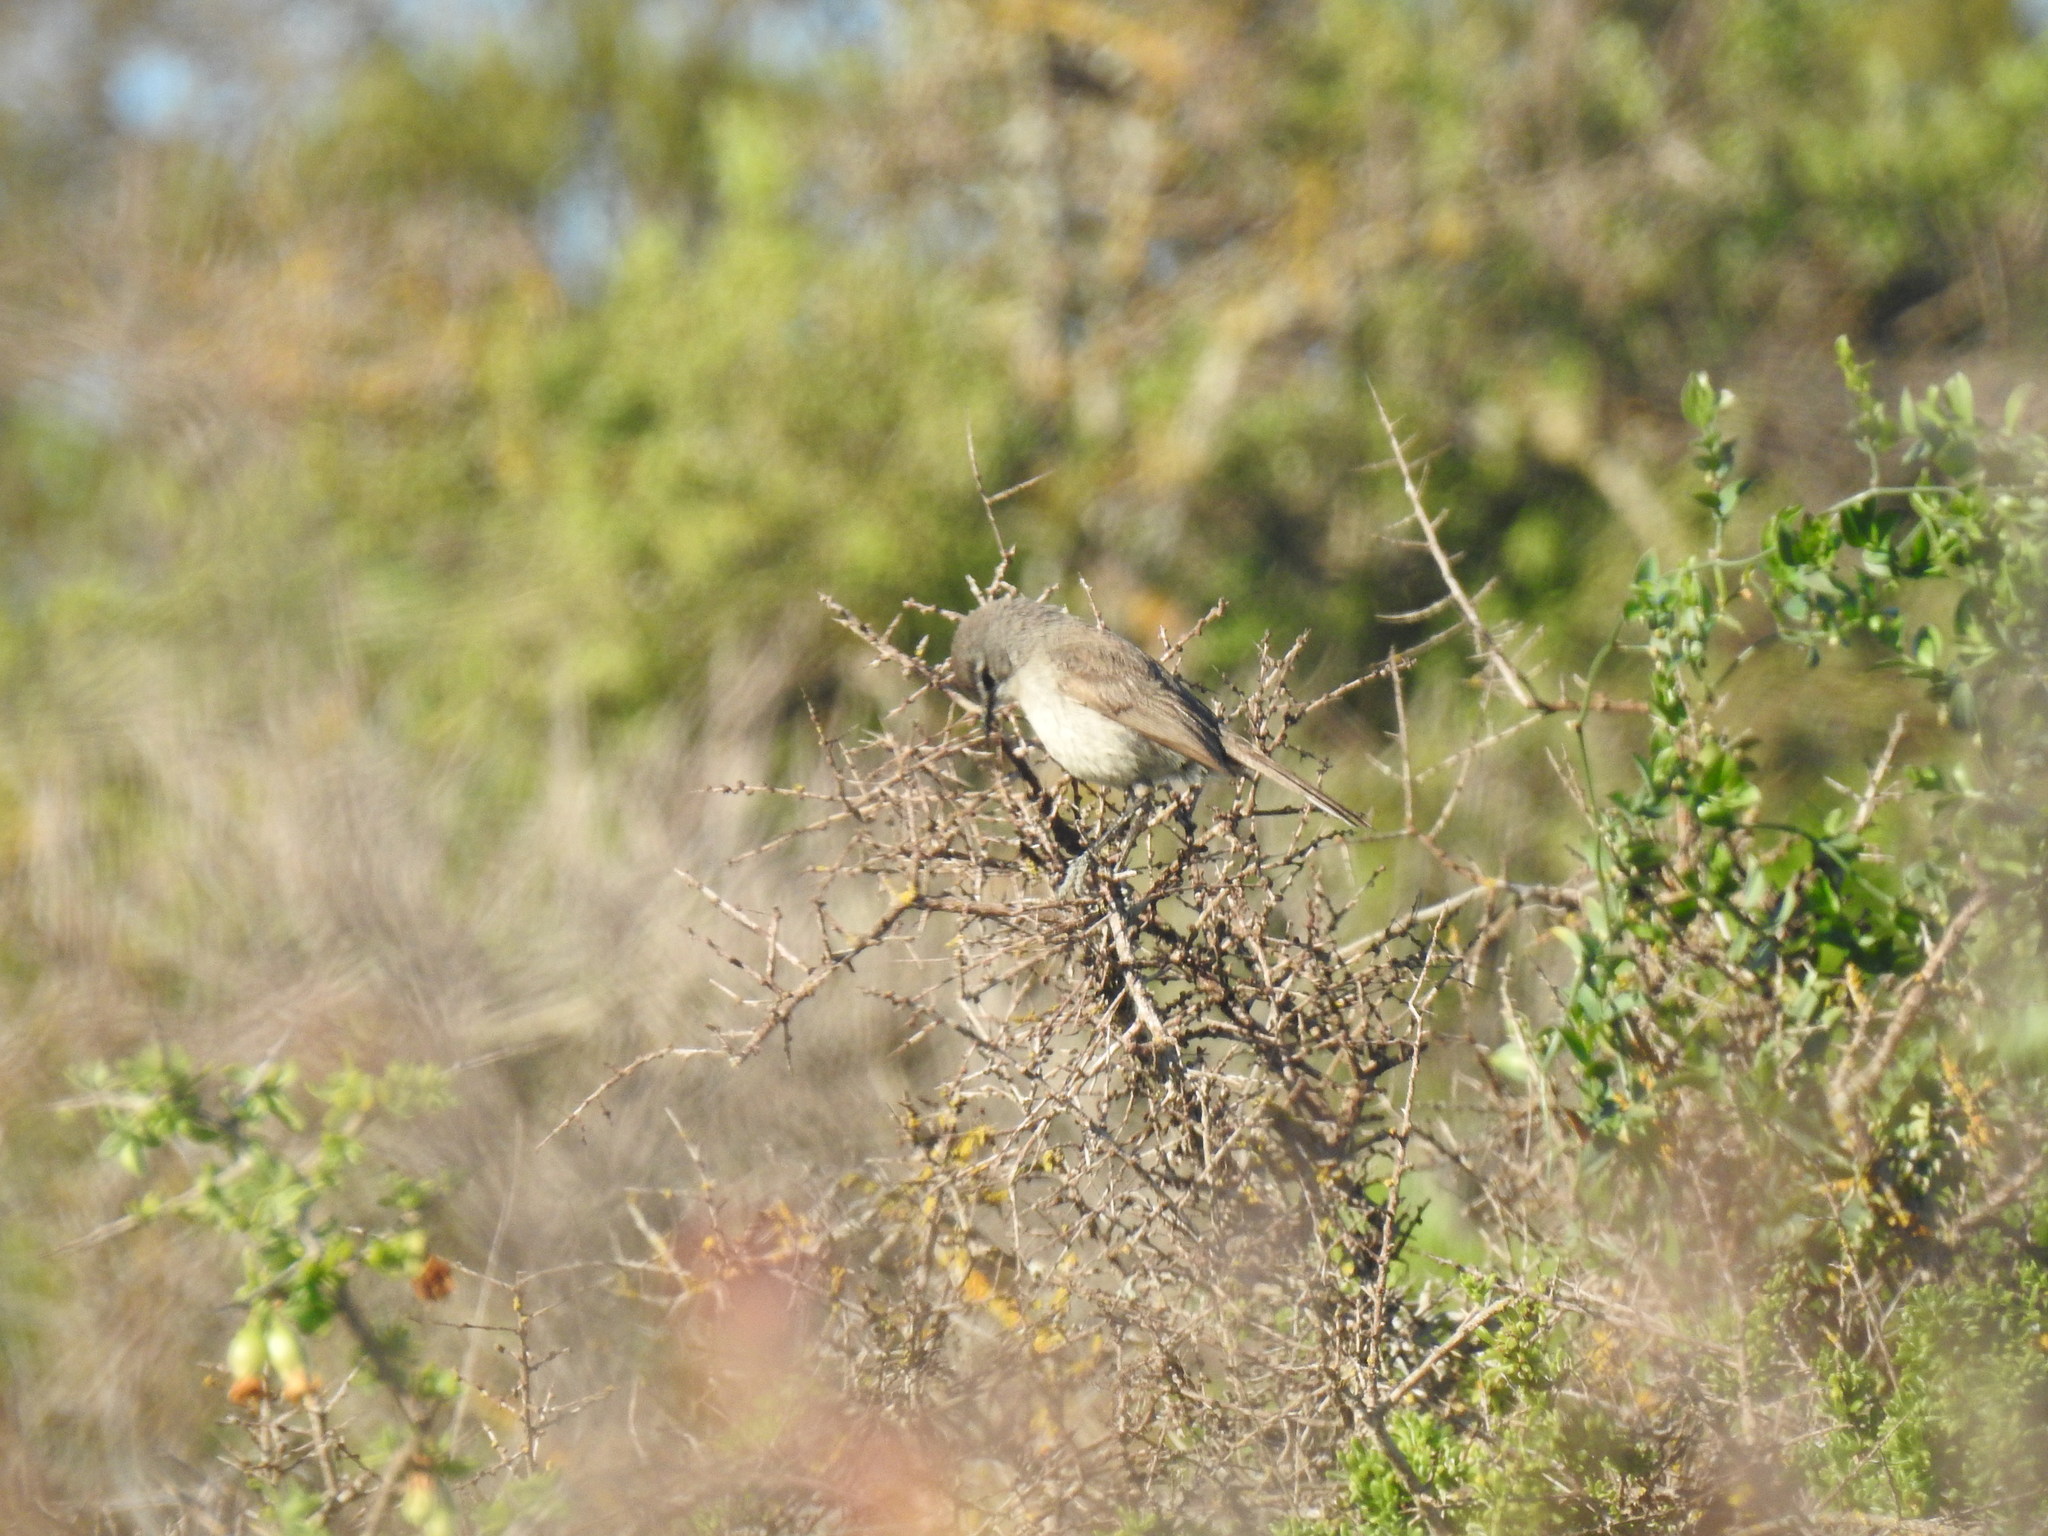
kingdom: Animalia
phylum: Chordata
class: Aves
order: Passeriformes
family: Muscicapidae
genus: Oenanthe
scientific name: Oenanthe familiaris
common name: Familiar chat
